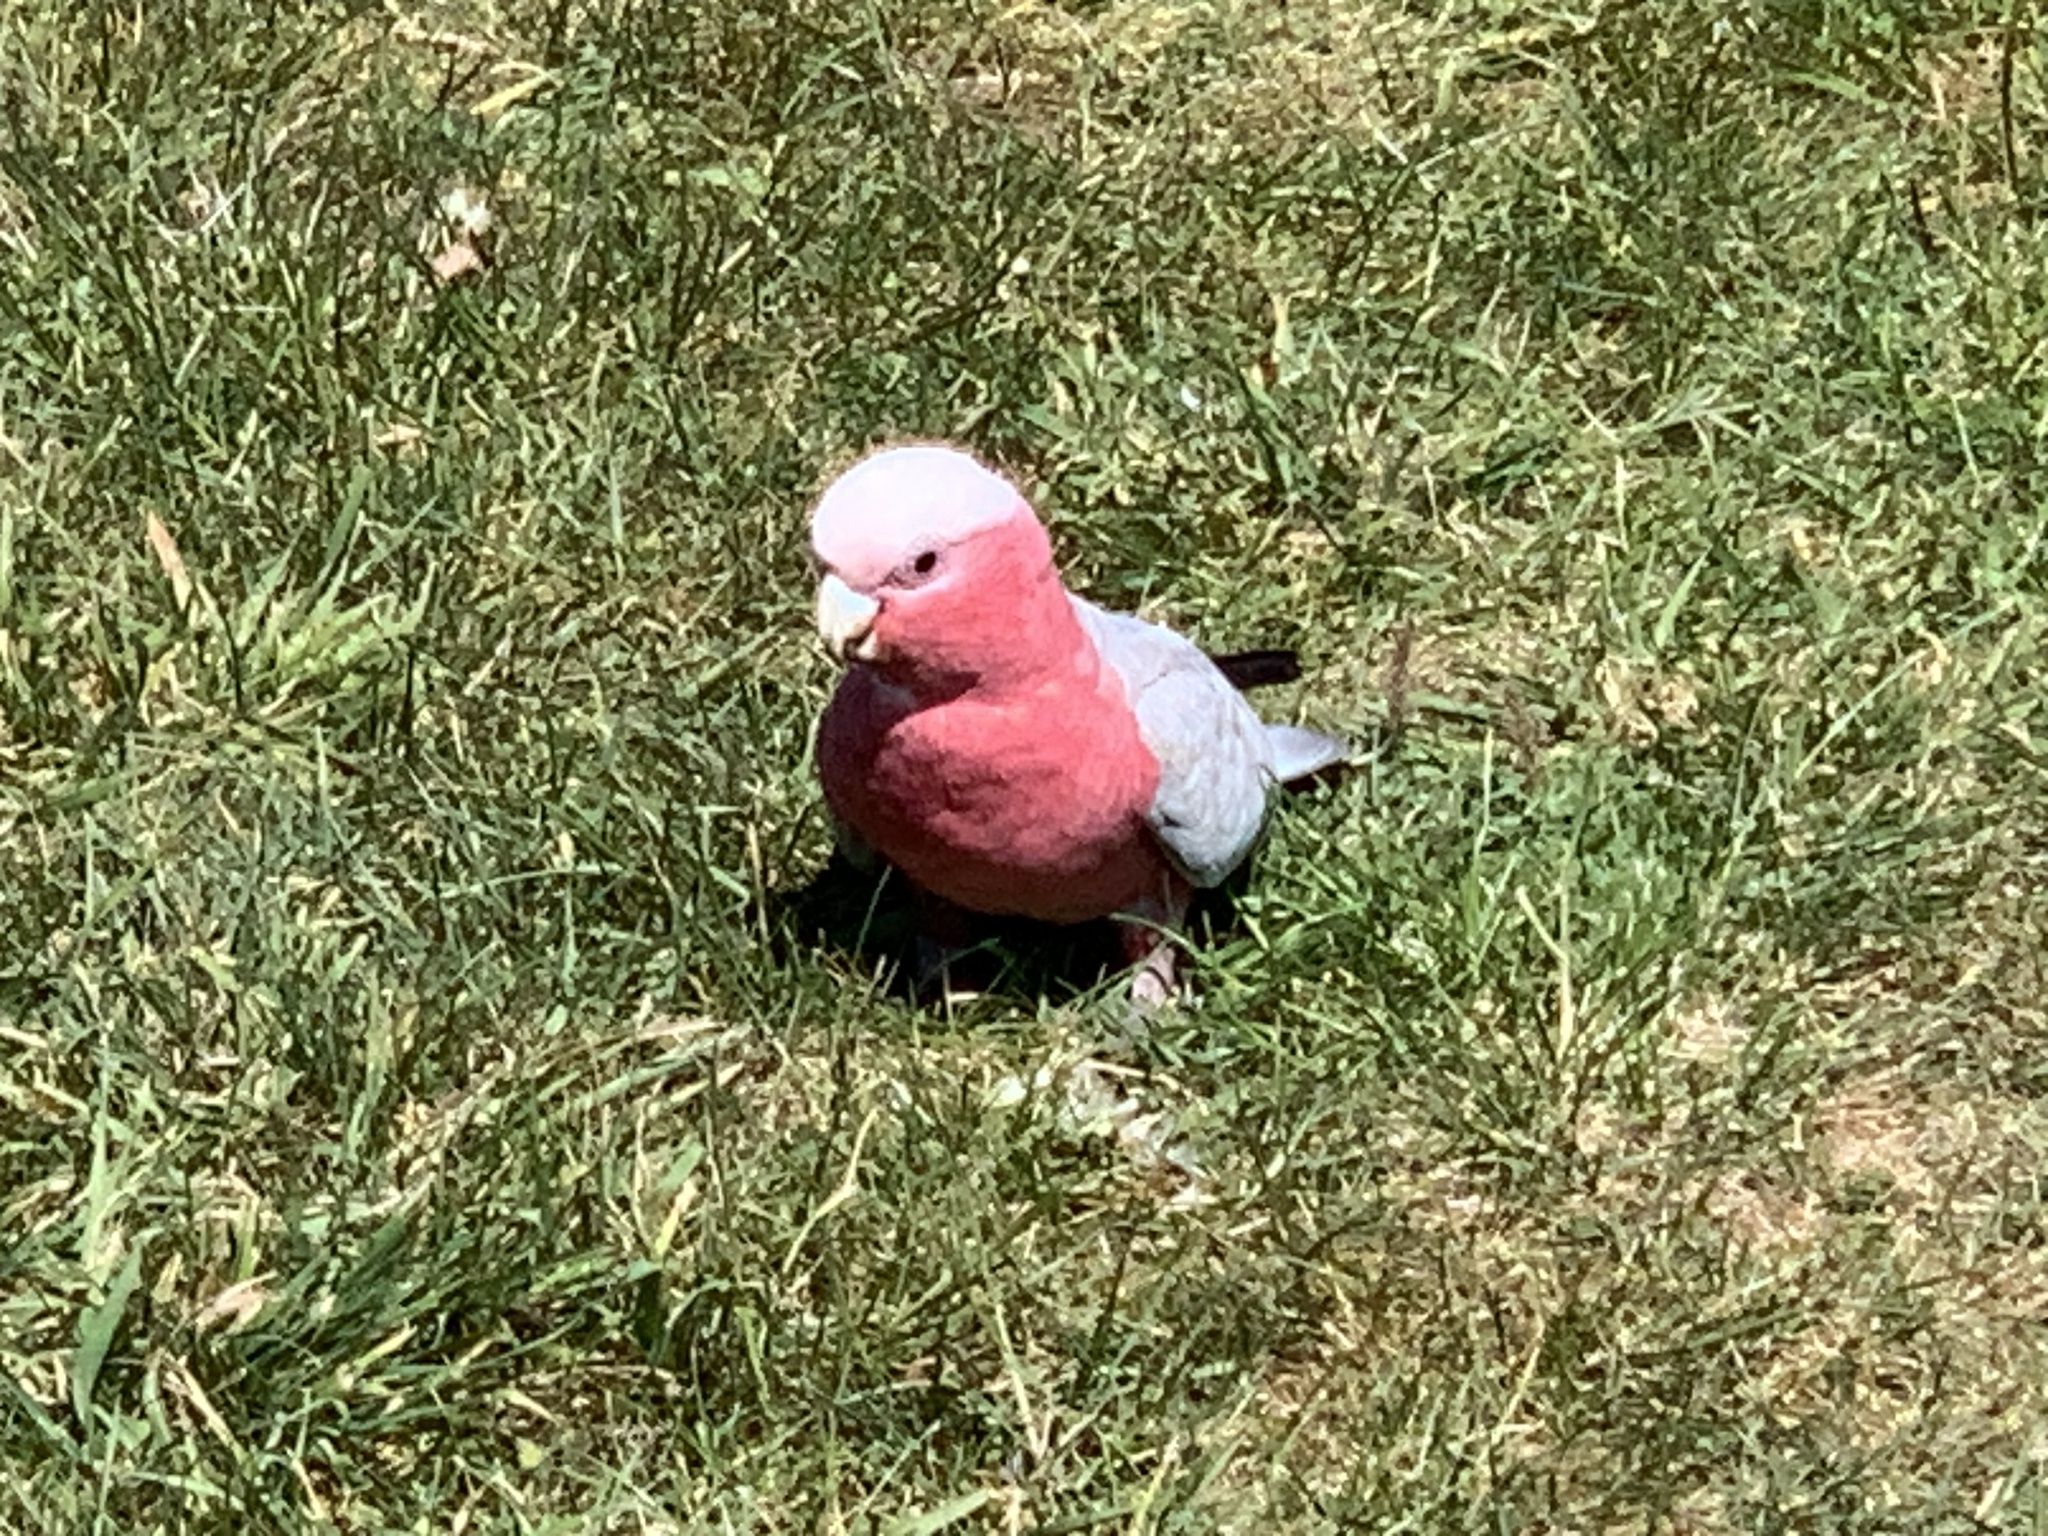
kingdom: Animalia
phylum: Chordata
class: Aves
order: Psittaciformes
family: Psittacidae
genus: Eolophus
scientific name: Eolophus roseicapilla
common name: Galah
